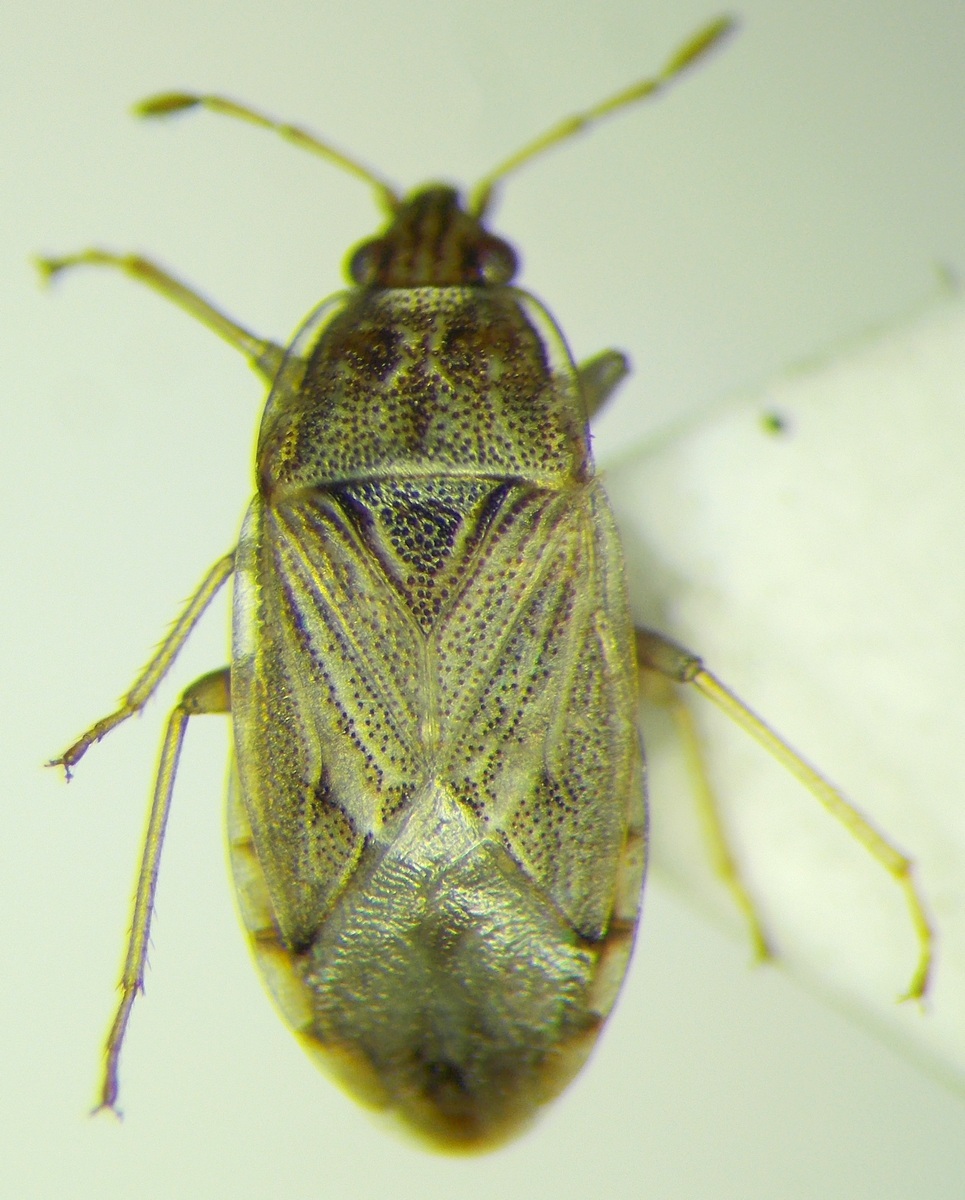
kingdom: Animalia
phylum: Arthropoda
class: Insecta
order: Hemiptera
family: Artheneidae
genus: Holcocranum
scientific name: Holcocranum saturejae
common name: Cattail bug
